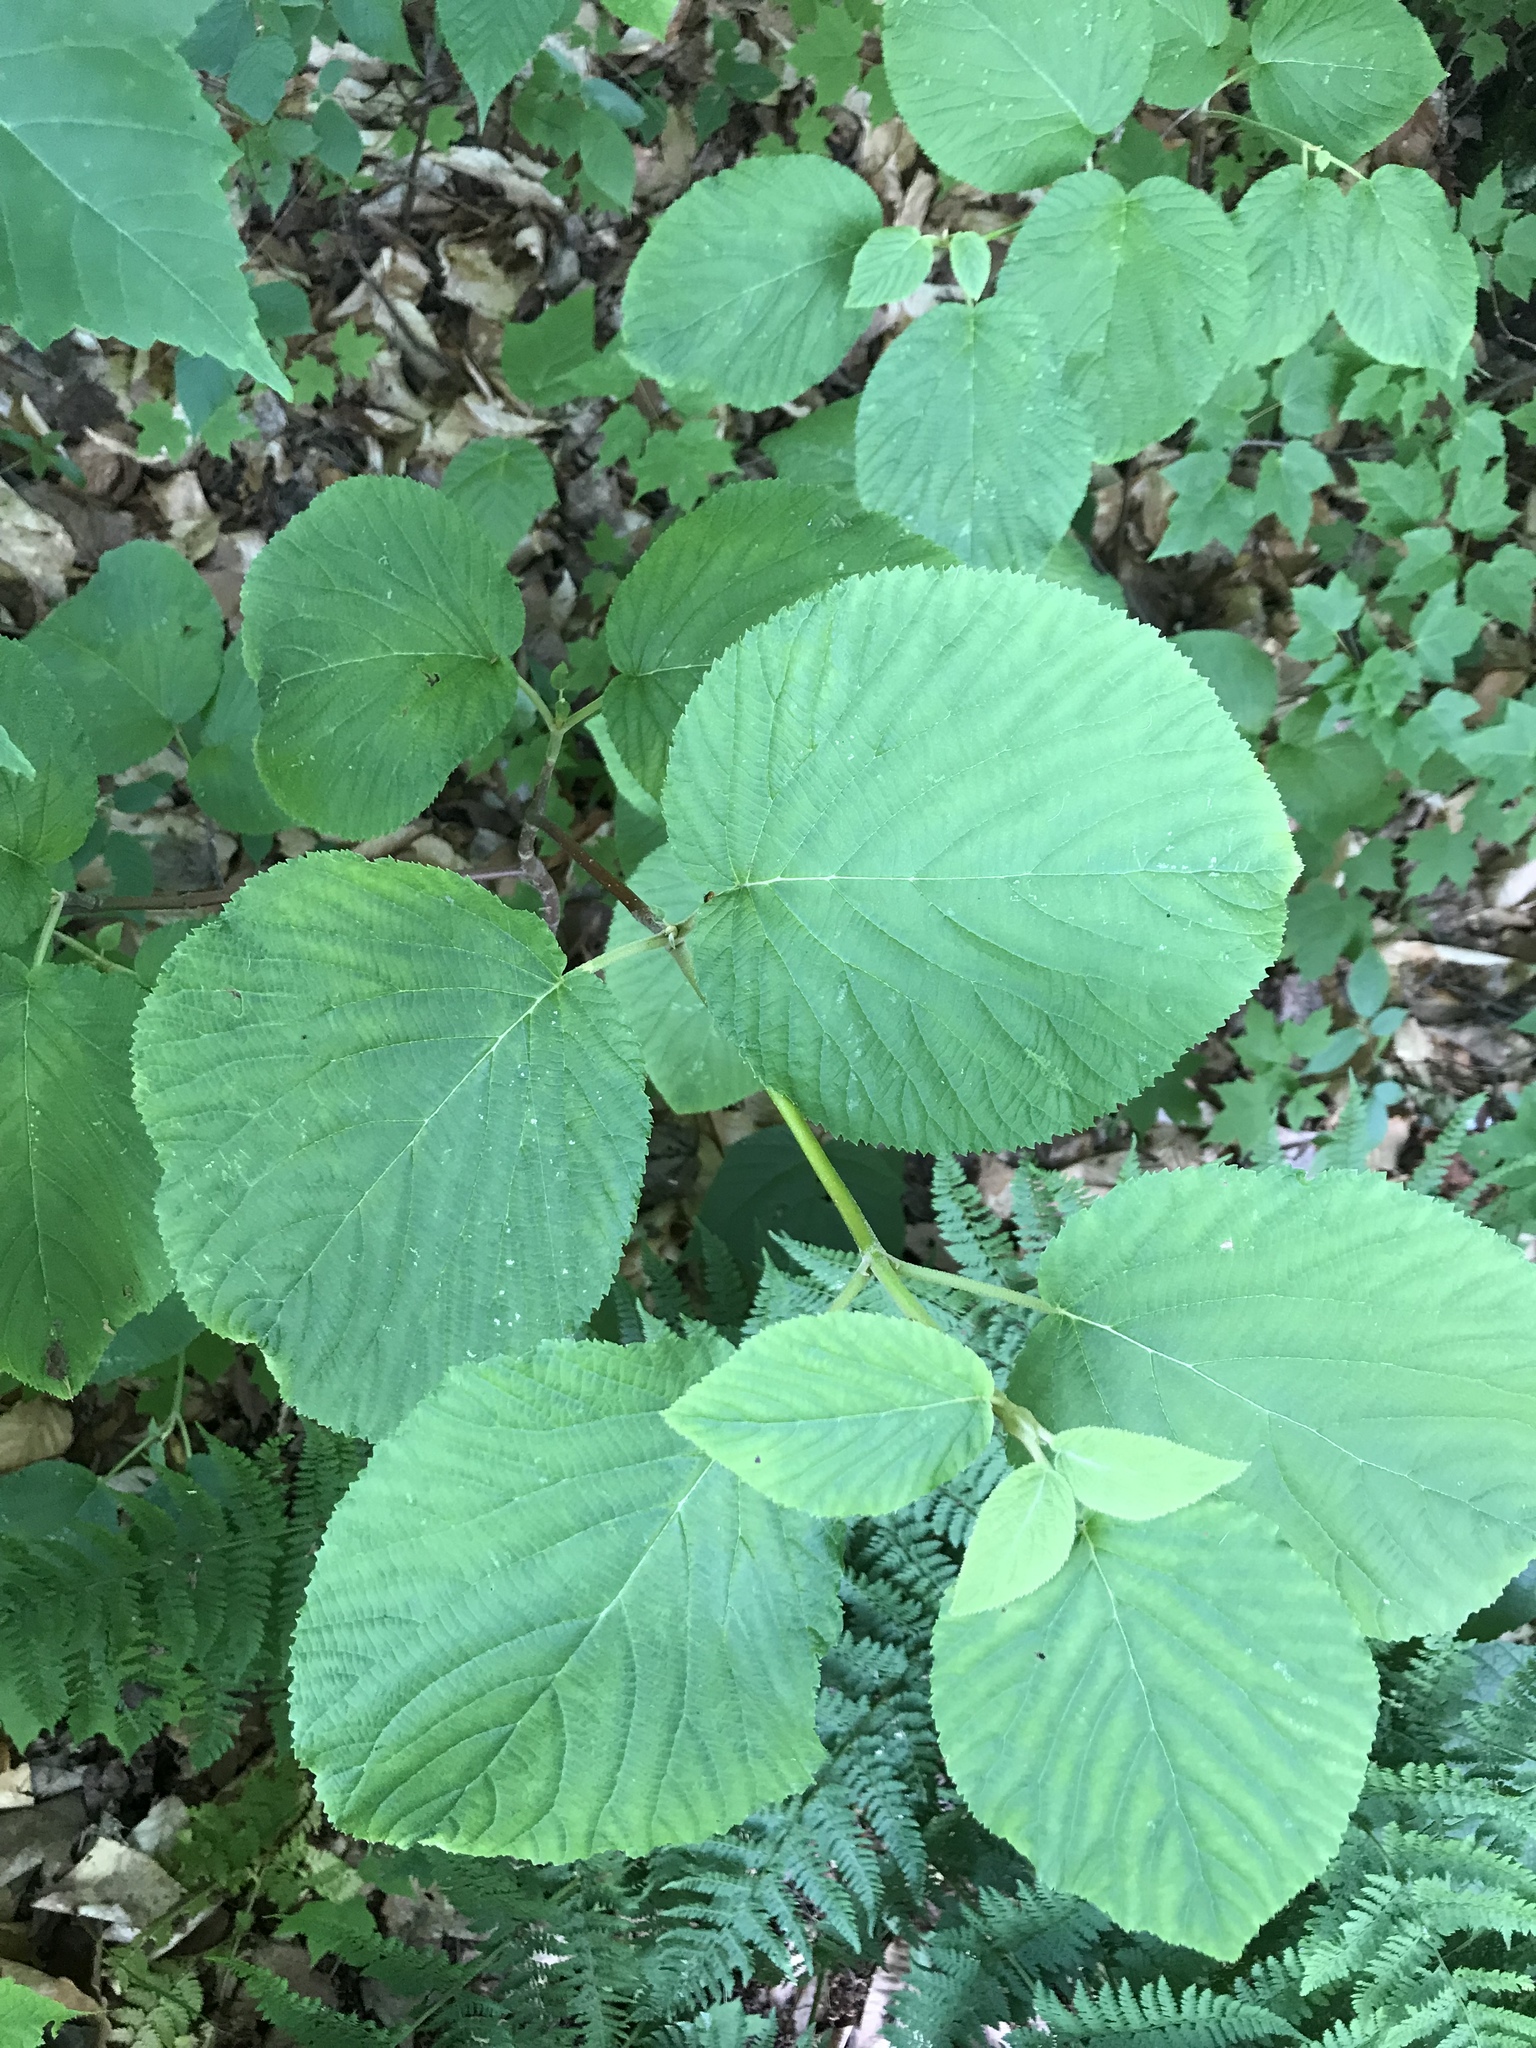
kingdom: Plantae
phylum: Tracheophyta
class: Magnoliopsida
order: Dipsacales
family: Viburnaceae
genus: Viburnum
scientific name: Viburnum lantanoides
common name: Hobblebush
